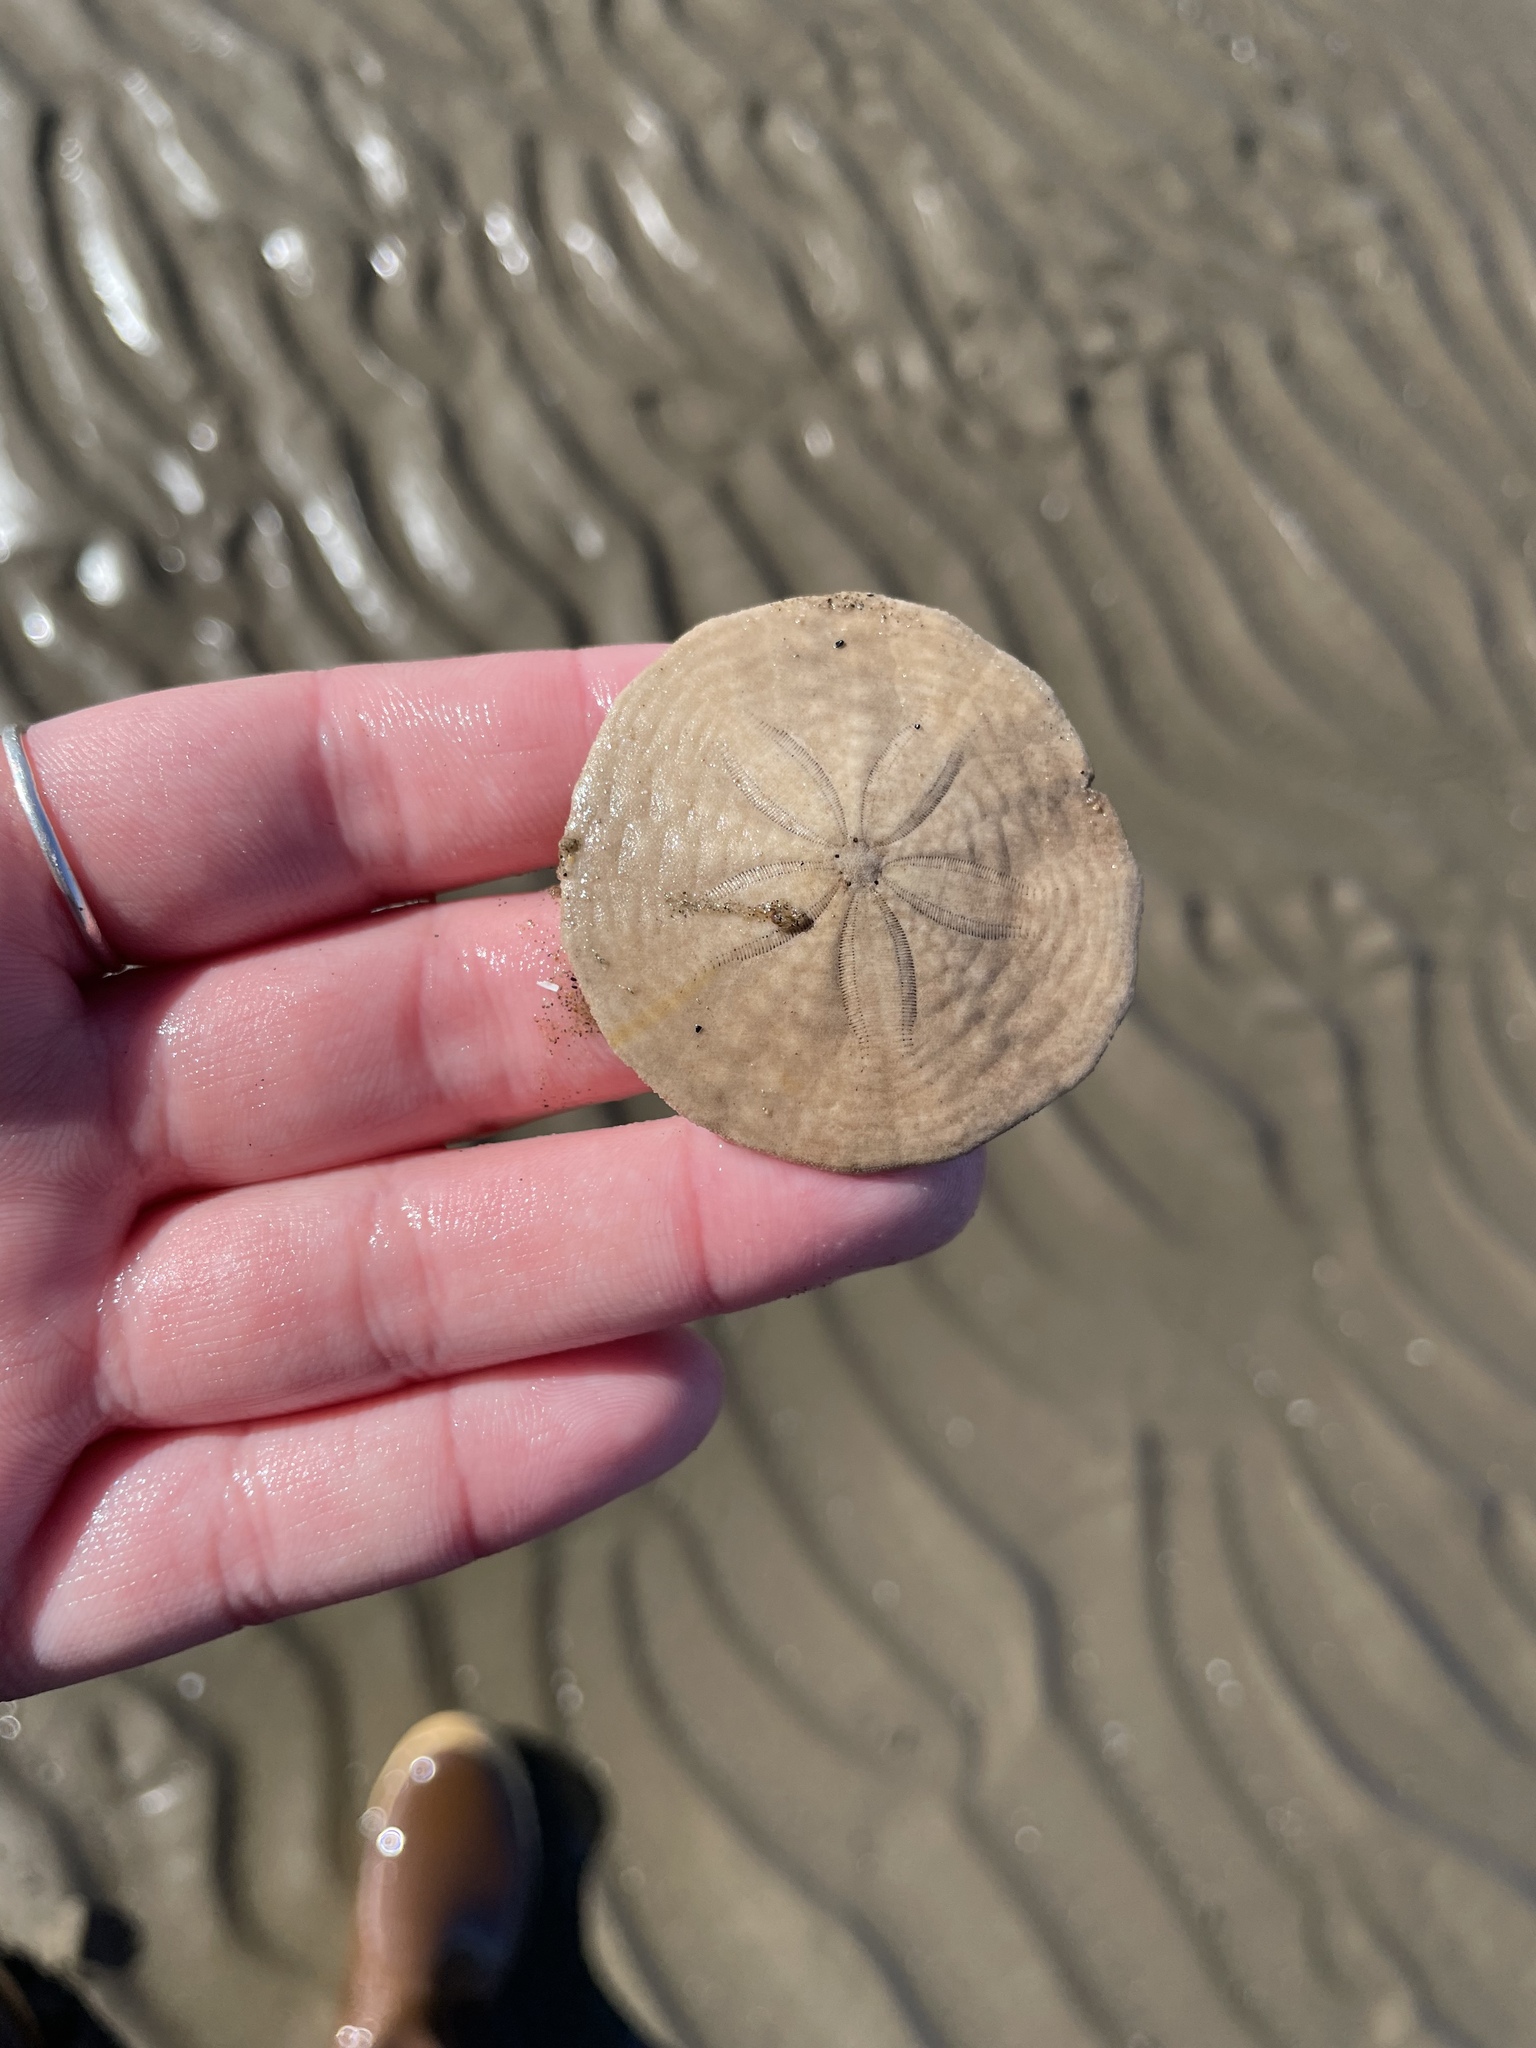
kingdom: Animalia
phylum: Echinodermata
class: Echinoidea
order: Echinolampadacea
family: Echinarachniidae
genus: Echinarachnius
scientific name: Echinarachnius parma
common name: Common sand dollar
